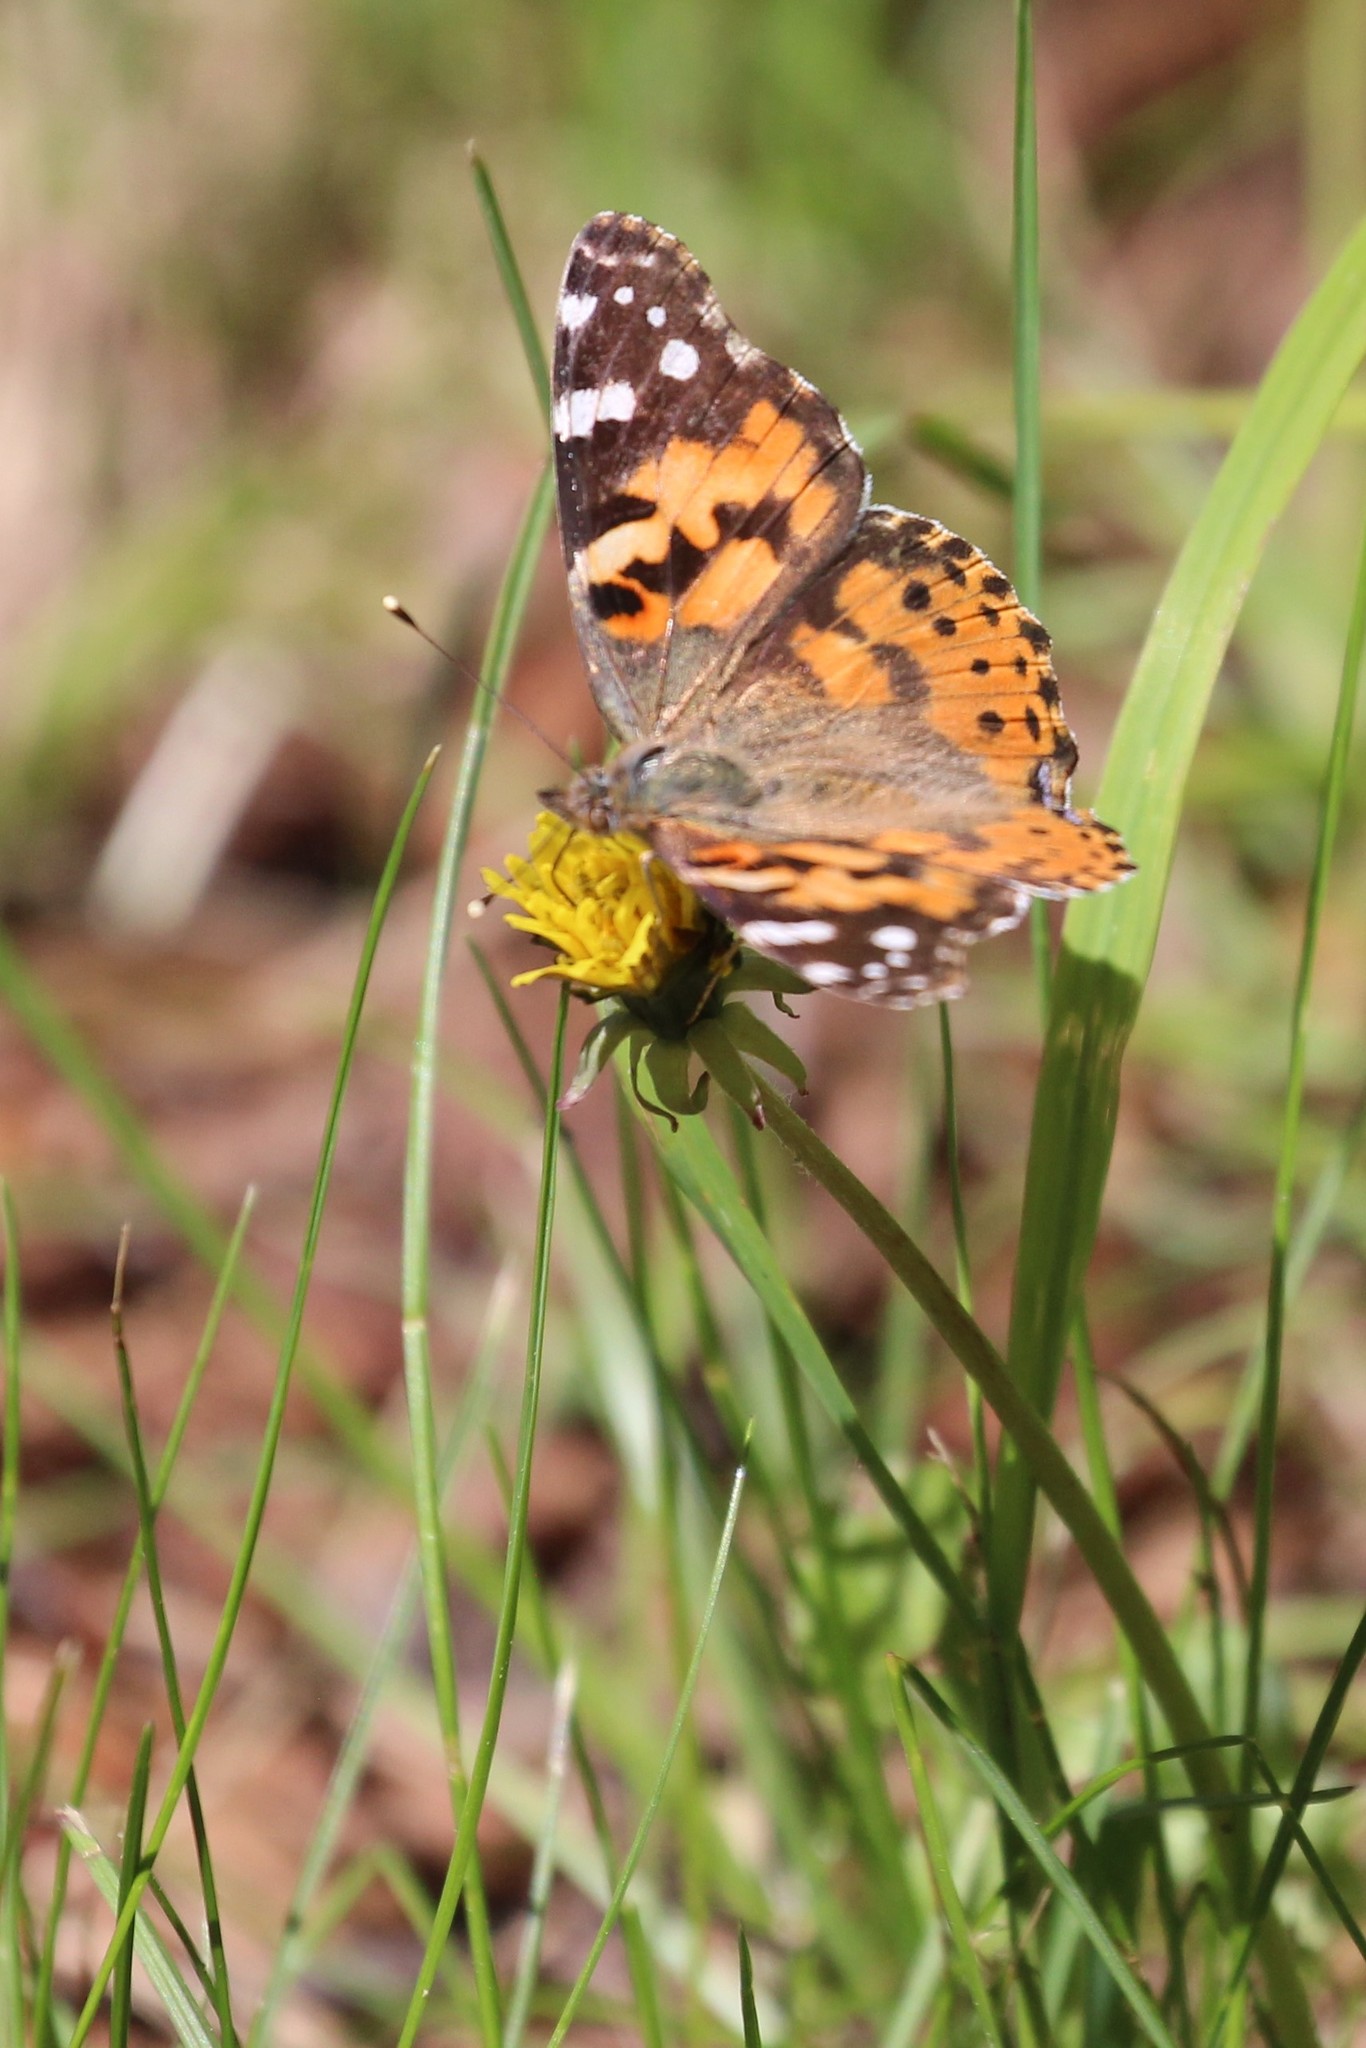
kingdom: Animalia
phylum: Arthropoda
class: Insecta
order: Lepidoptera
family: Nymphalidae
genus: Vanessa
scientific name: Vanessa cardui
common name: Painted lady
